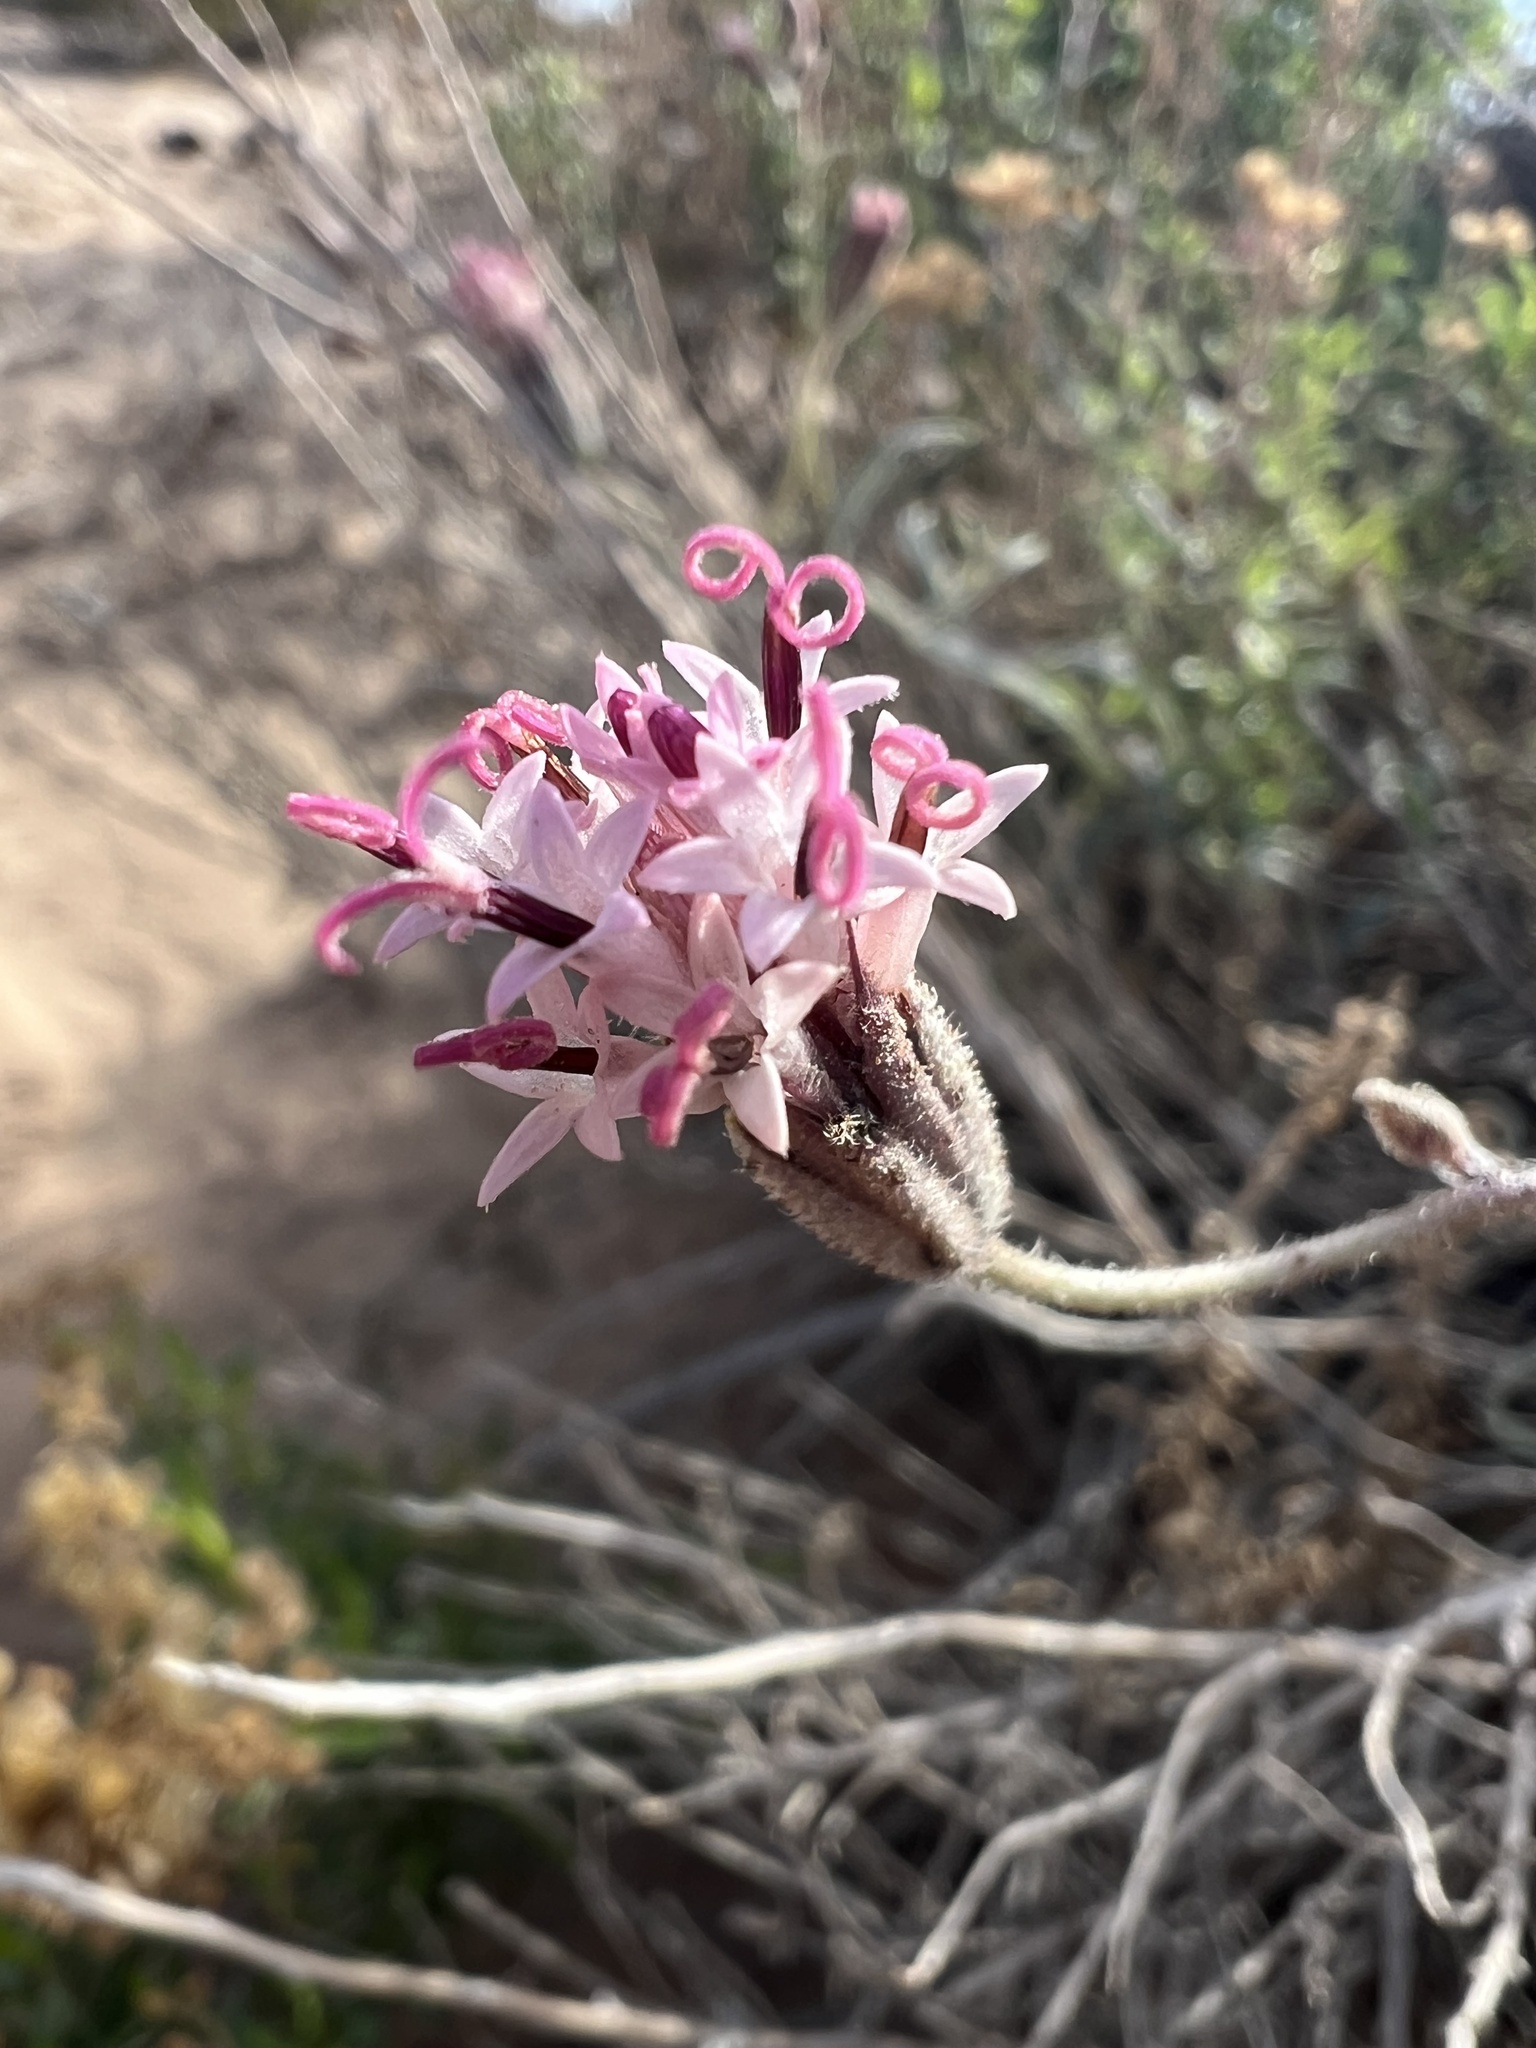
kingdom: Plantae
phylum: Tracheophyta
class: Magnoliopsida
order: Asterales
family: Asteraceae
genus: Palafoxia
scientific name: Palafoxia arida
